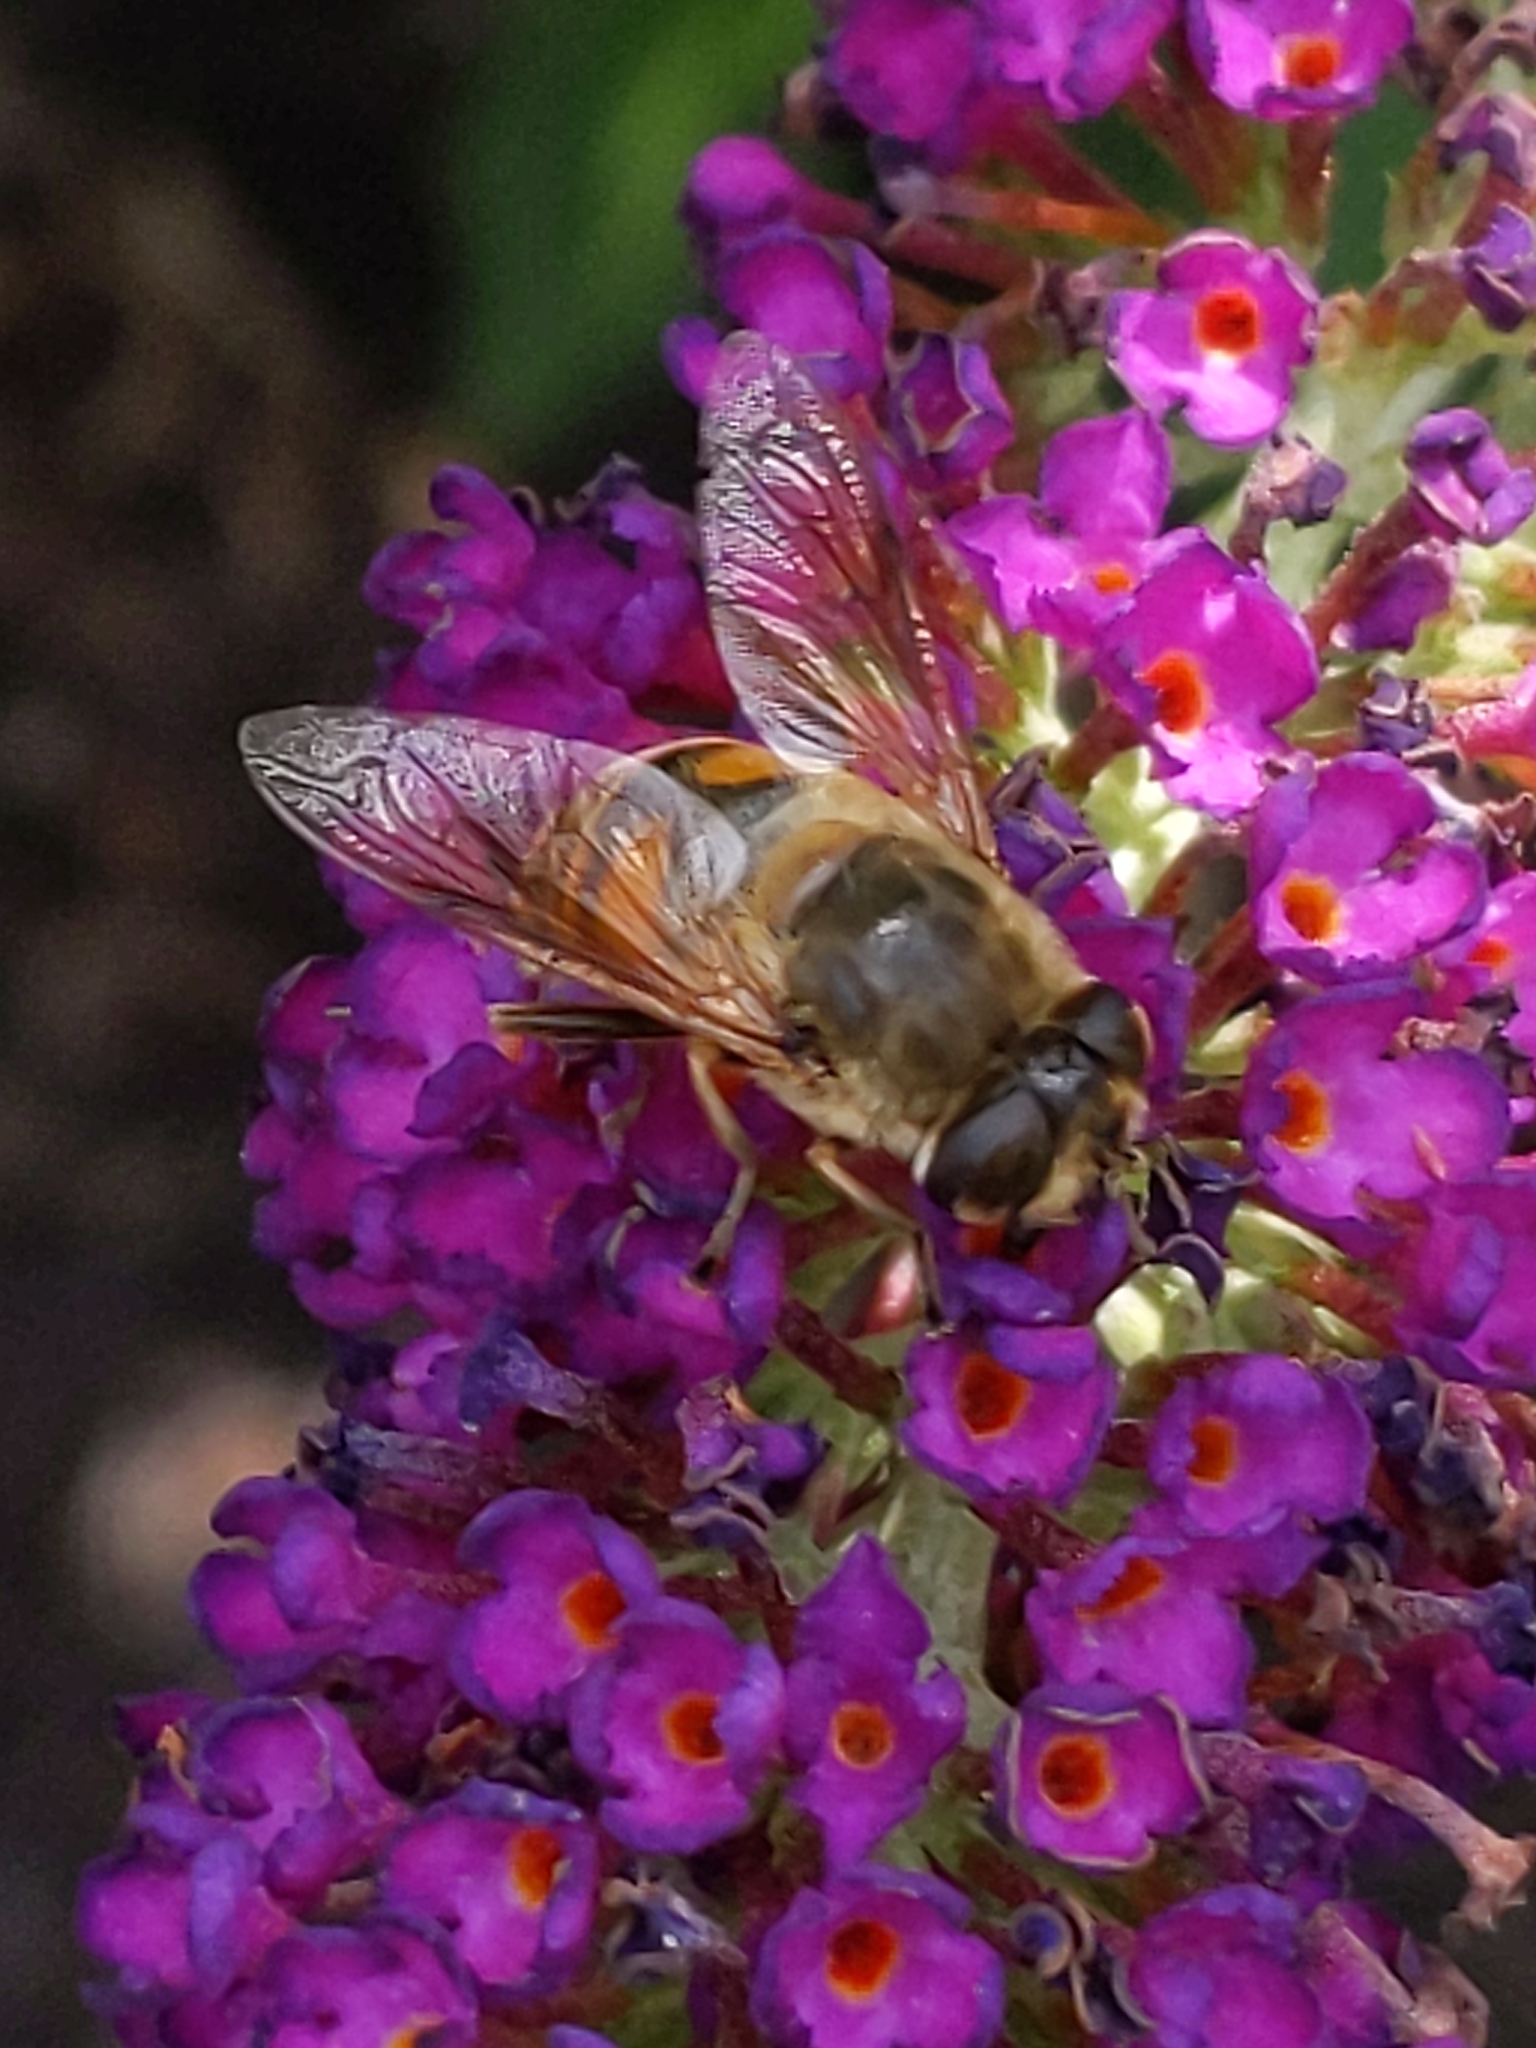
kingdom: Animalia
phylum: Arthropoda
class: Insecta
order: Diptera
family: Syrphidae
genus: Eristalis
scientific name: Eristalis tenax
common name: Drone fly
